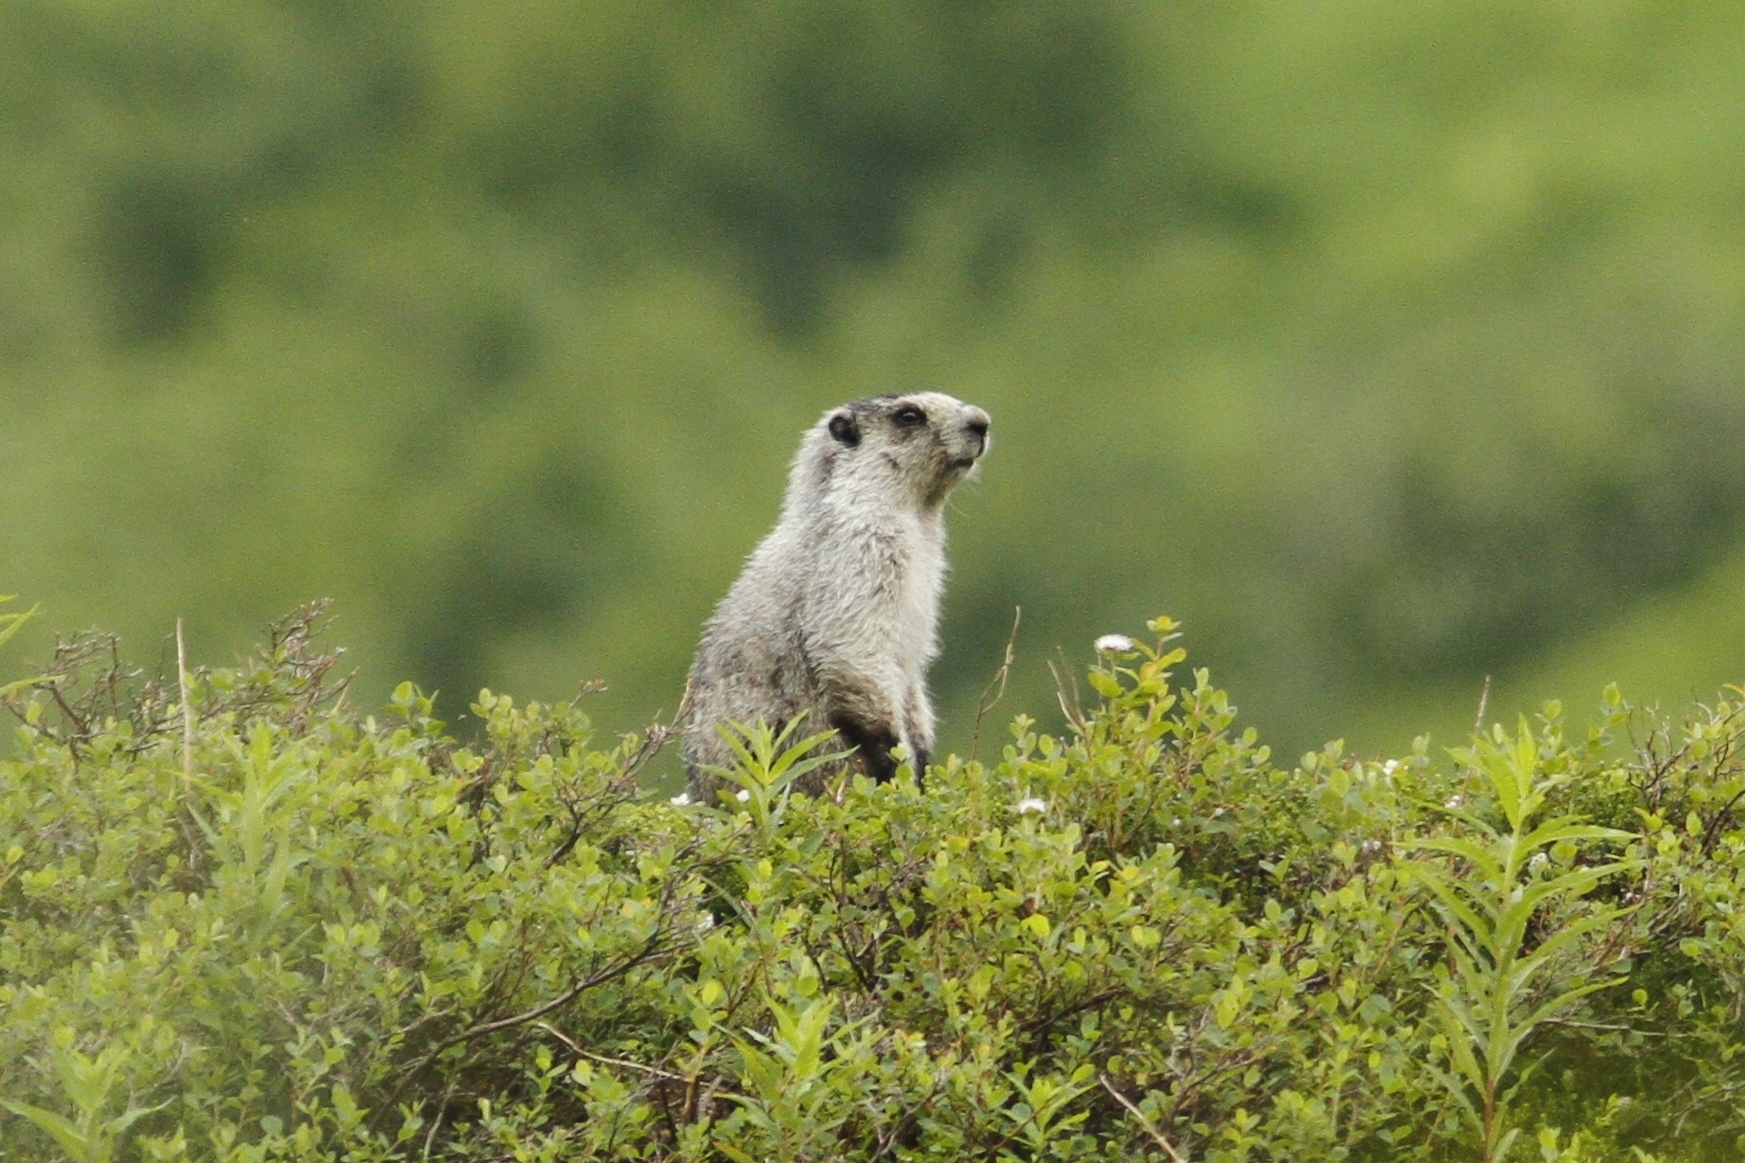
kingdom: Animalia
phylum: Chordata
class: Mammalia
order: Rodentia
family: Sciuridae
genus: Marmota
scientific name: Marmota caligata
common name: Hoary marmot
